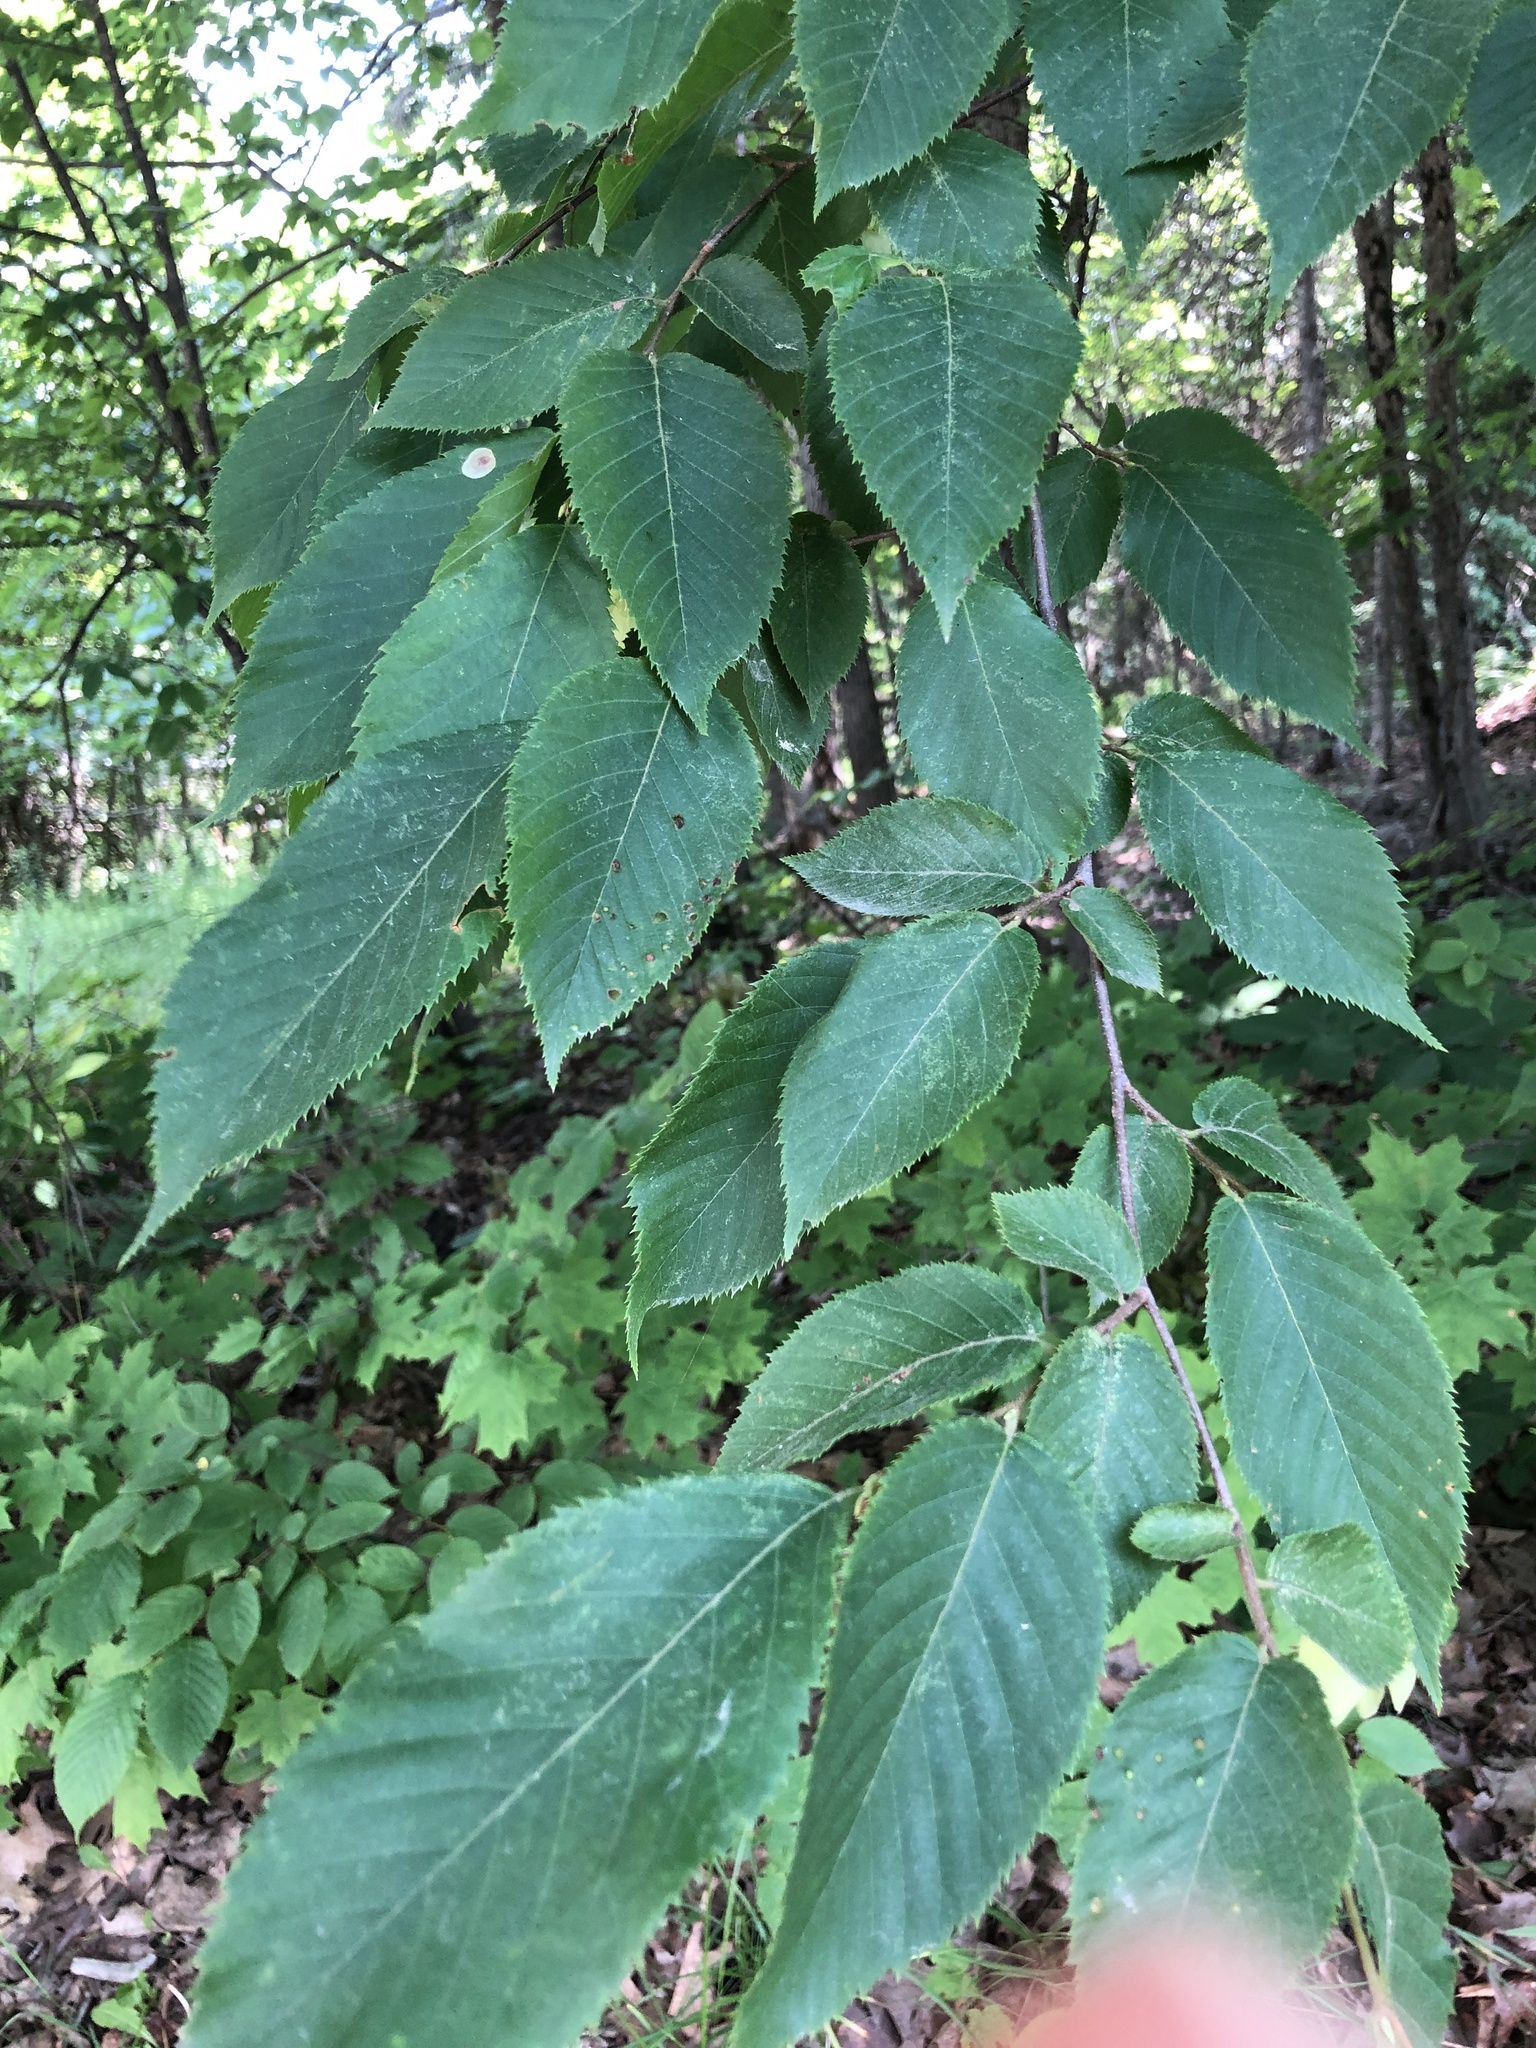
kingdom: Plantae
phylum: Tracheophyta
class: Magnoliopsida
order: Fagales
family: Betulaceae
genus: Ostrya
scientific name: Ostrya virginiana
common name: Ironwood
